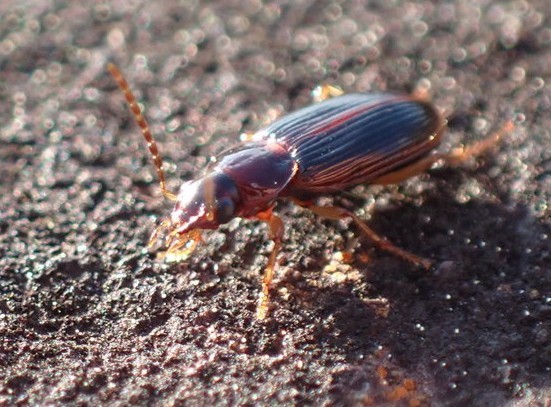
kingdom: Animalia
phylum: Arthropoda
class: Insecta
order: Coleoptera
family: Carabidae
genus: Stenolophus
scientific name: Stenolophus ochropezus
